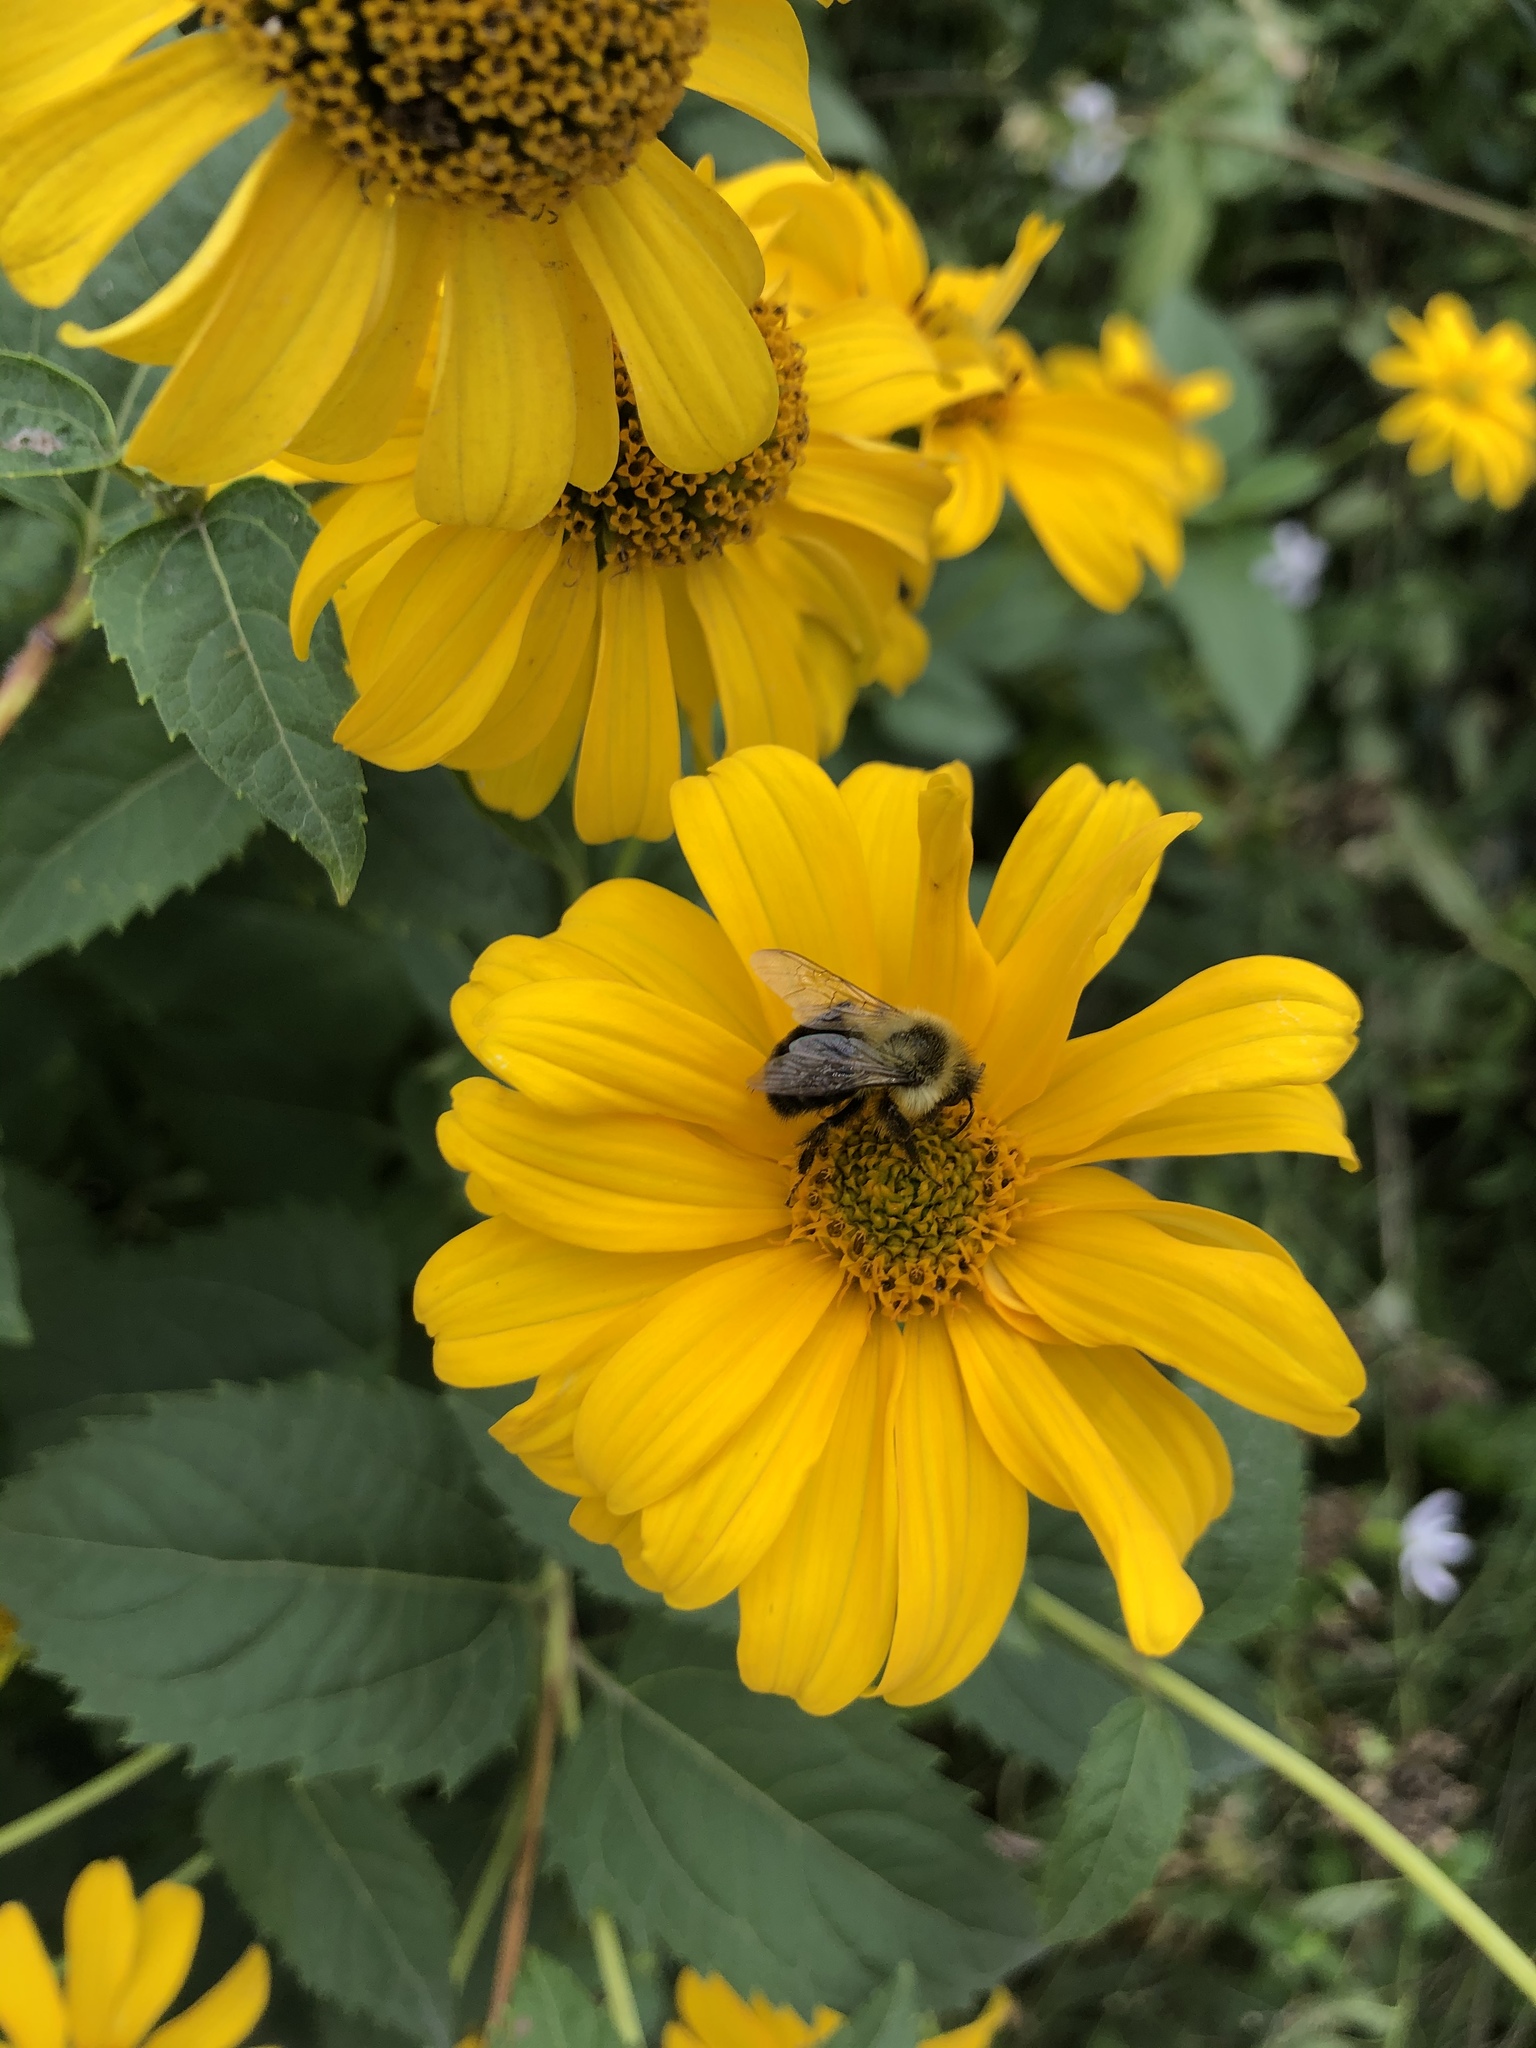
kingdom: Animalia
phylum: Arthropoda
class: Insecta
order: Hymenoptera
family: Apidae
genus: Bombus
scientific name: Bombus impatiens
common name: Common eastern bumble bee
